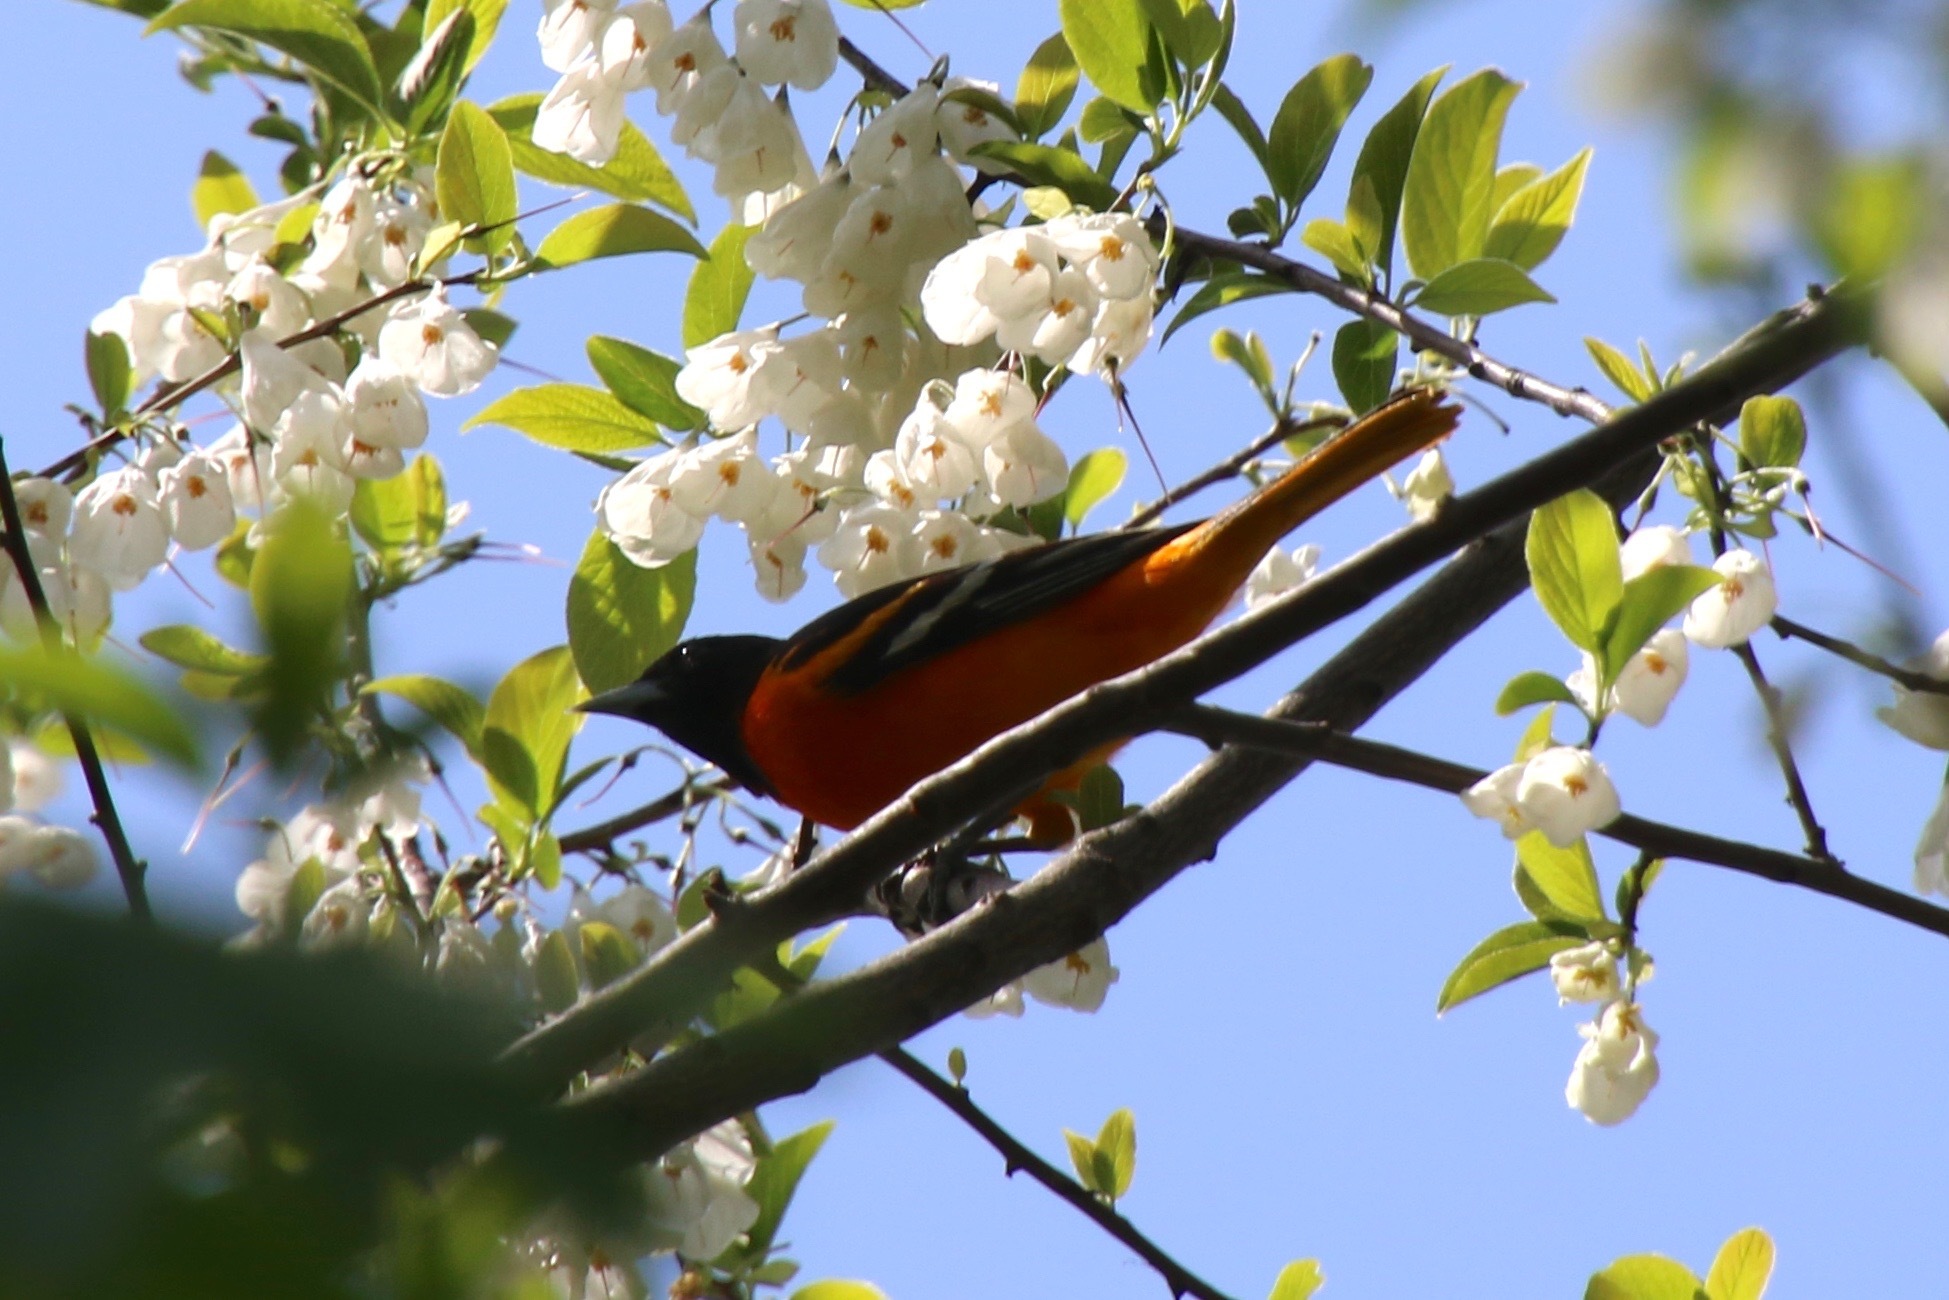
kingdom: Animalia
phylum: Chordata
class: Aves
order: Passeriformes
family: Icteridae
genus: Icterus
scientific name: Icterus galbula
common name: Baltimore oriole
